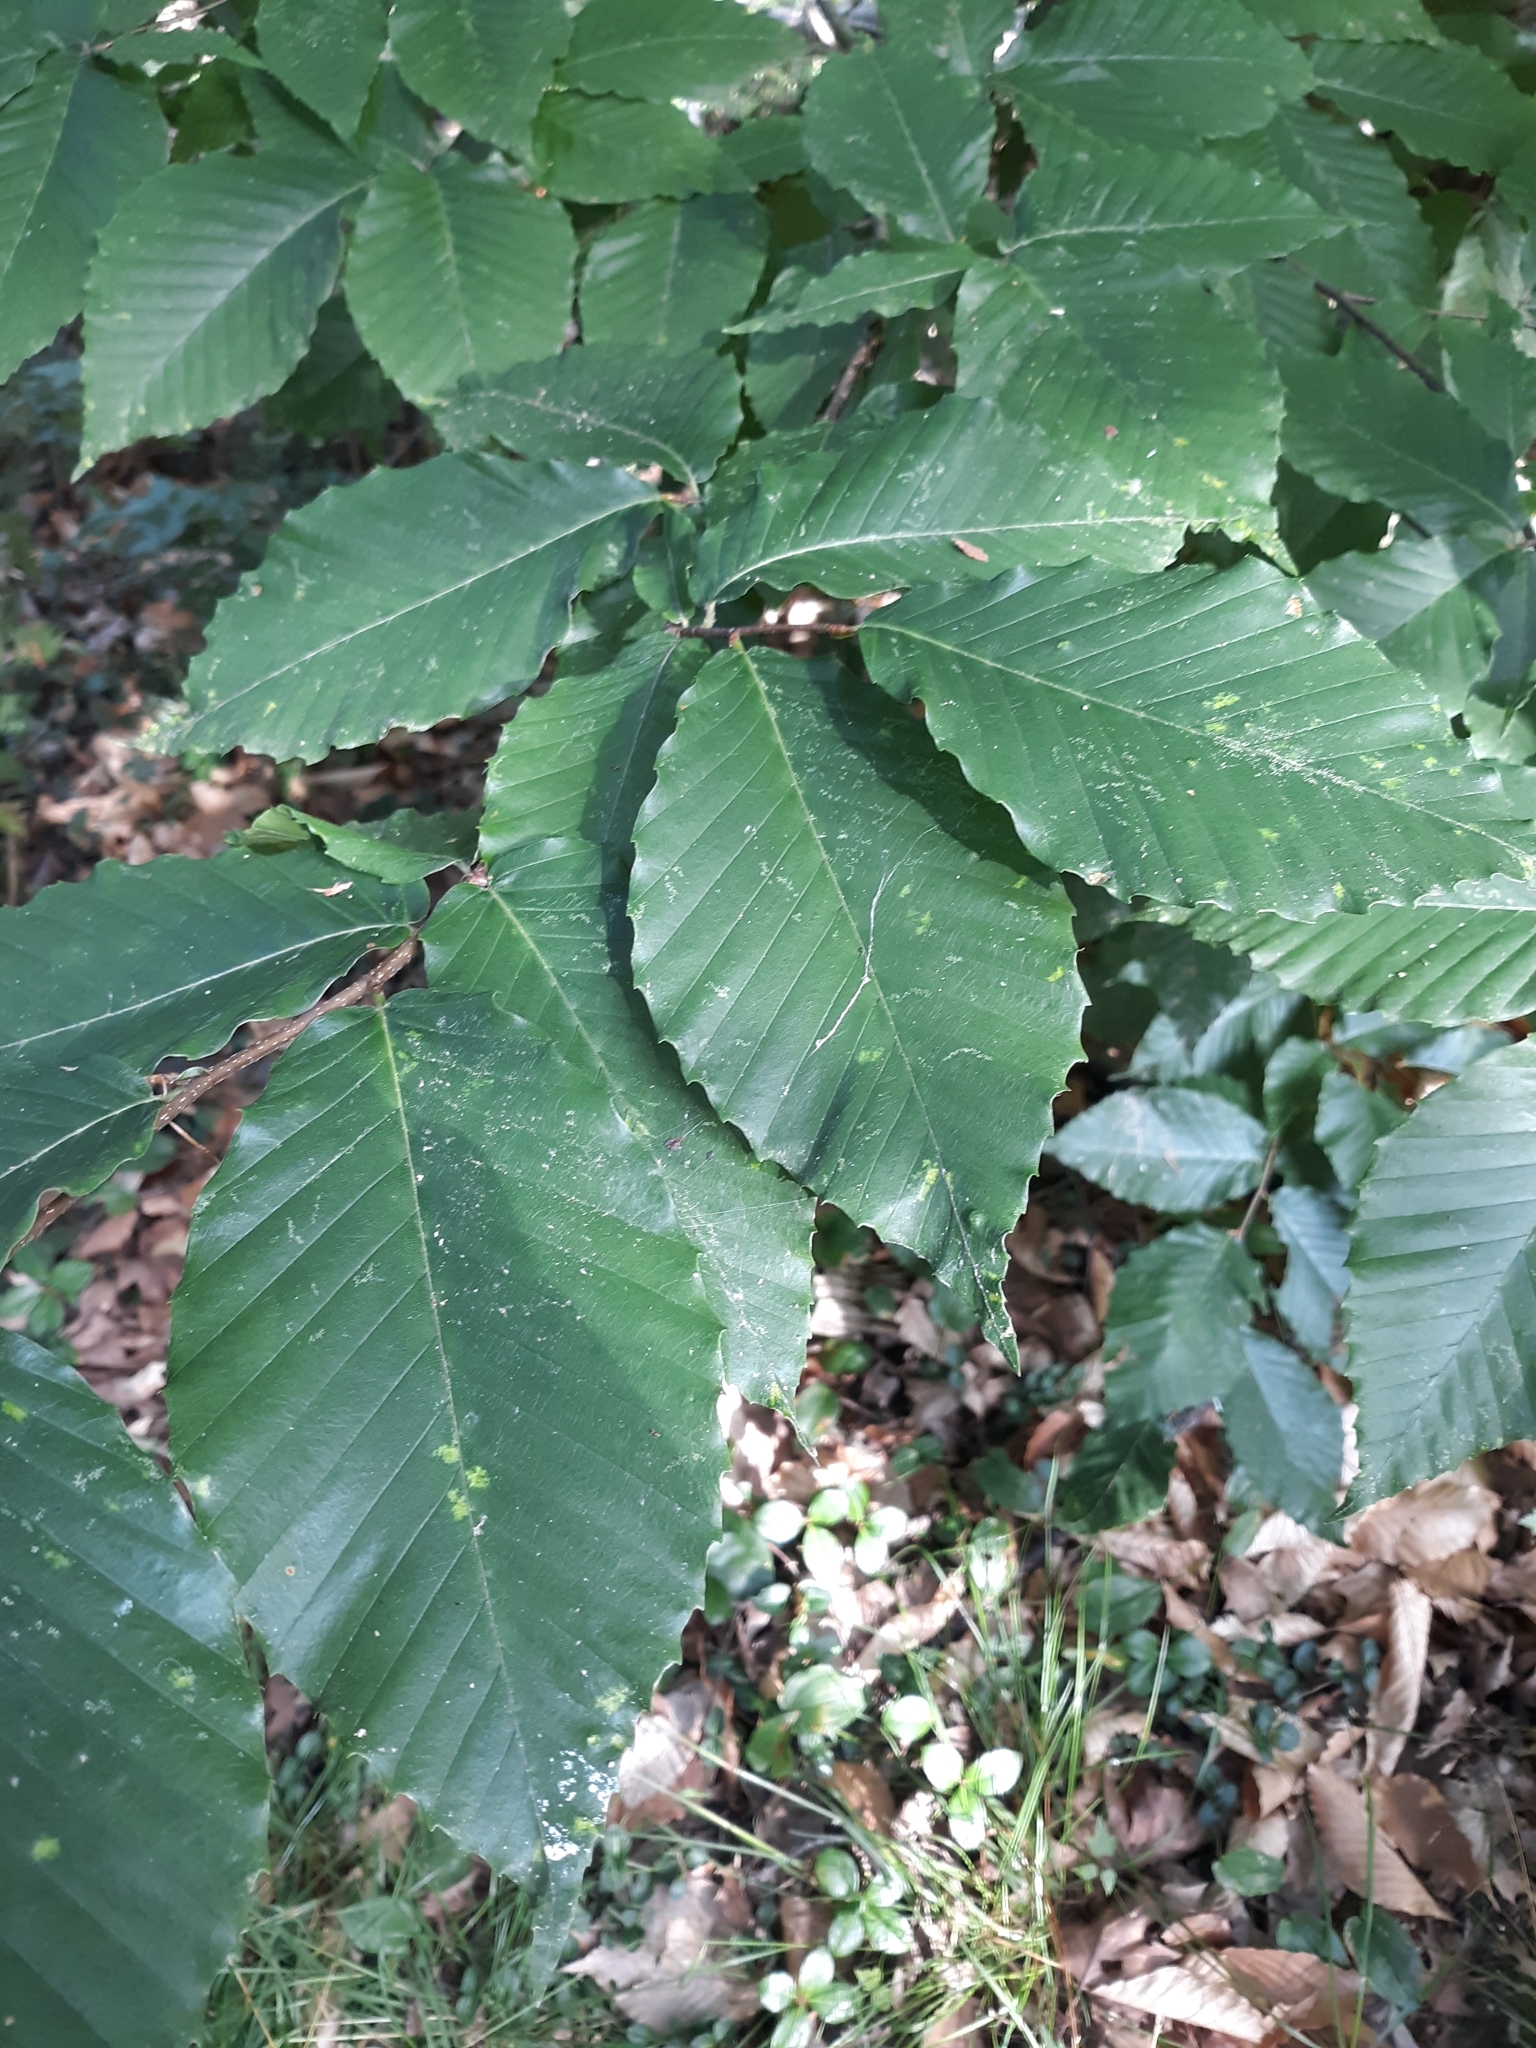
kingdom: Plantae
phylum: Tracheophyta
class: Magnoliopsida
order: Fagales
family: Fagaceae
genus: Fagus
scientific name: Fagus grandifolia
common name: American beech
